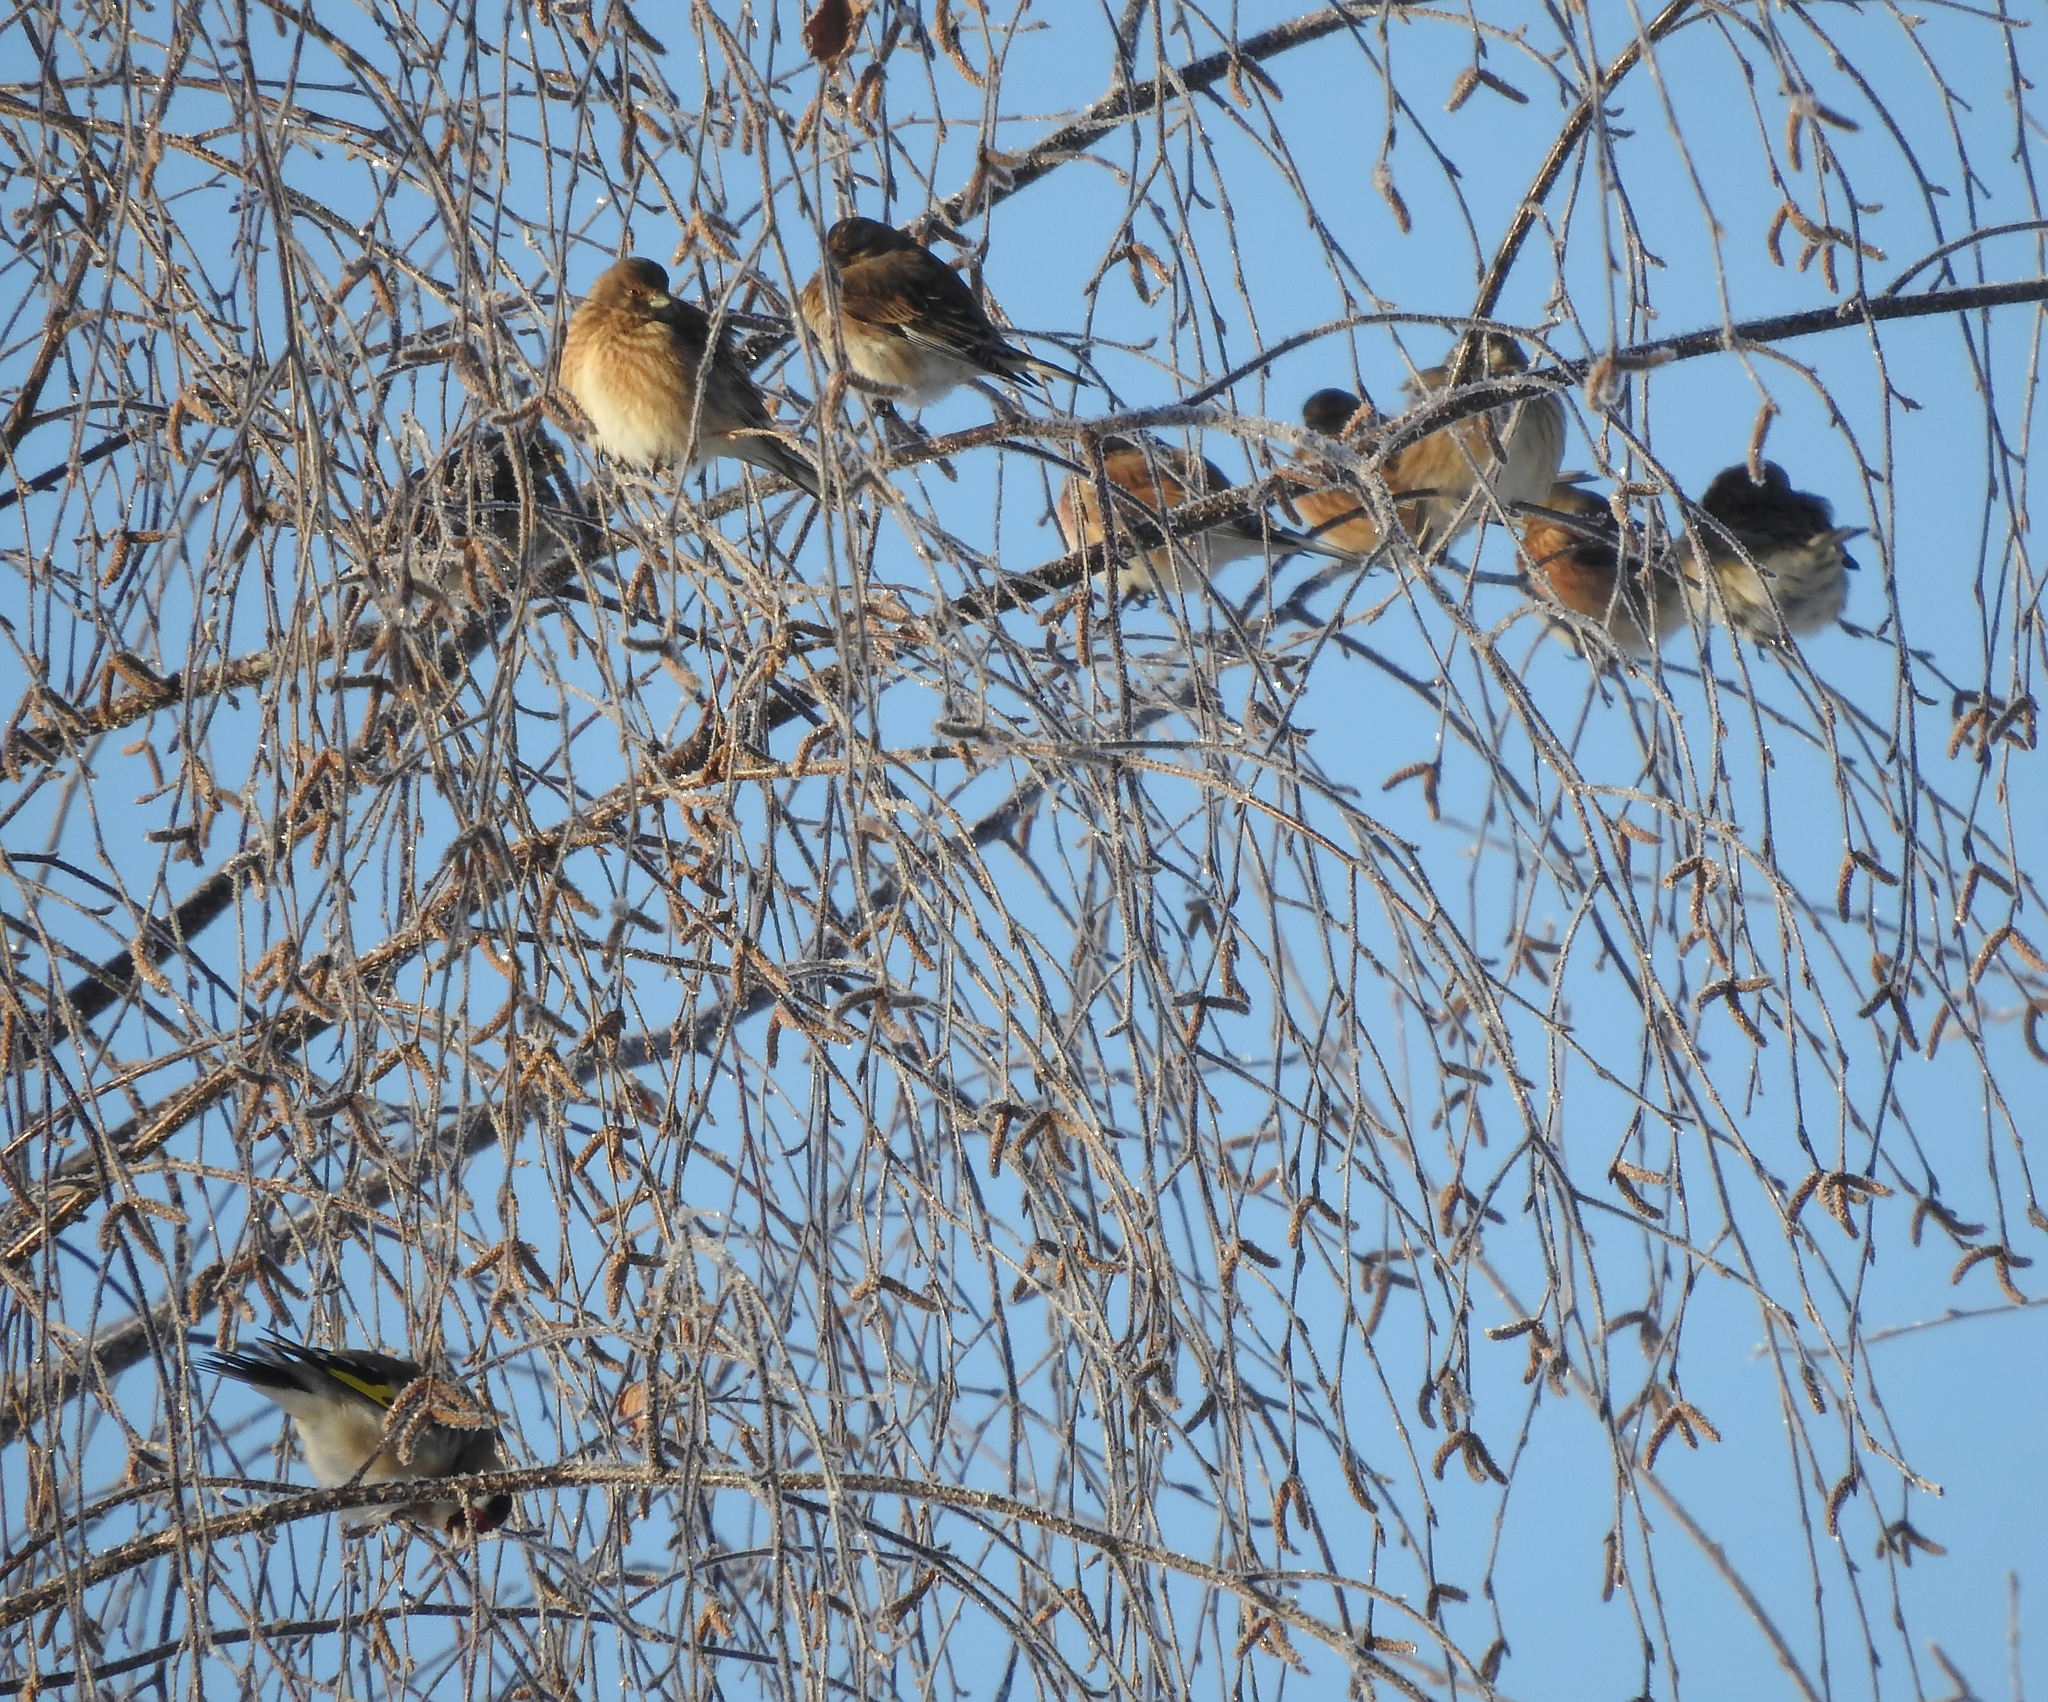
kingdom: Animalia
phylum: Chordata
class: Aves
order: Passeriformes
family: Fringillidae
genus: Carduelis
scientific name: Carduelis carduelis
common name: European goldfinch
